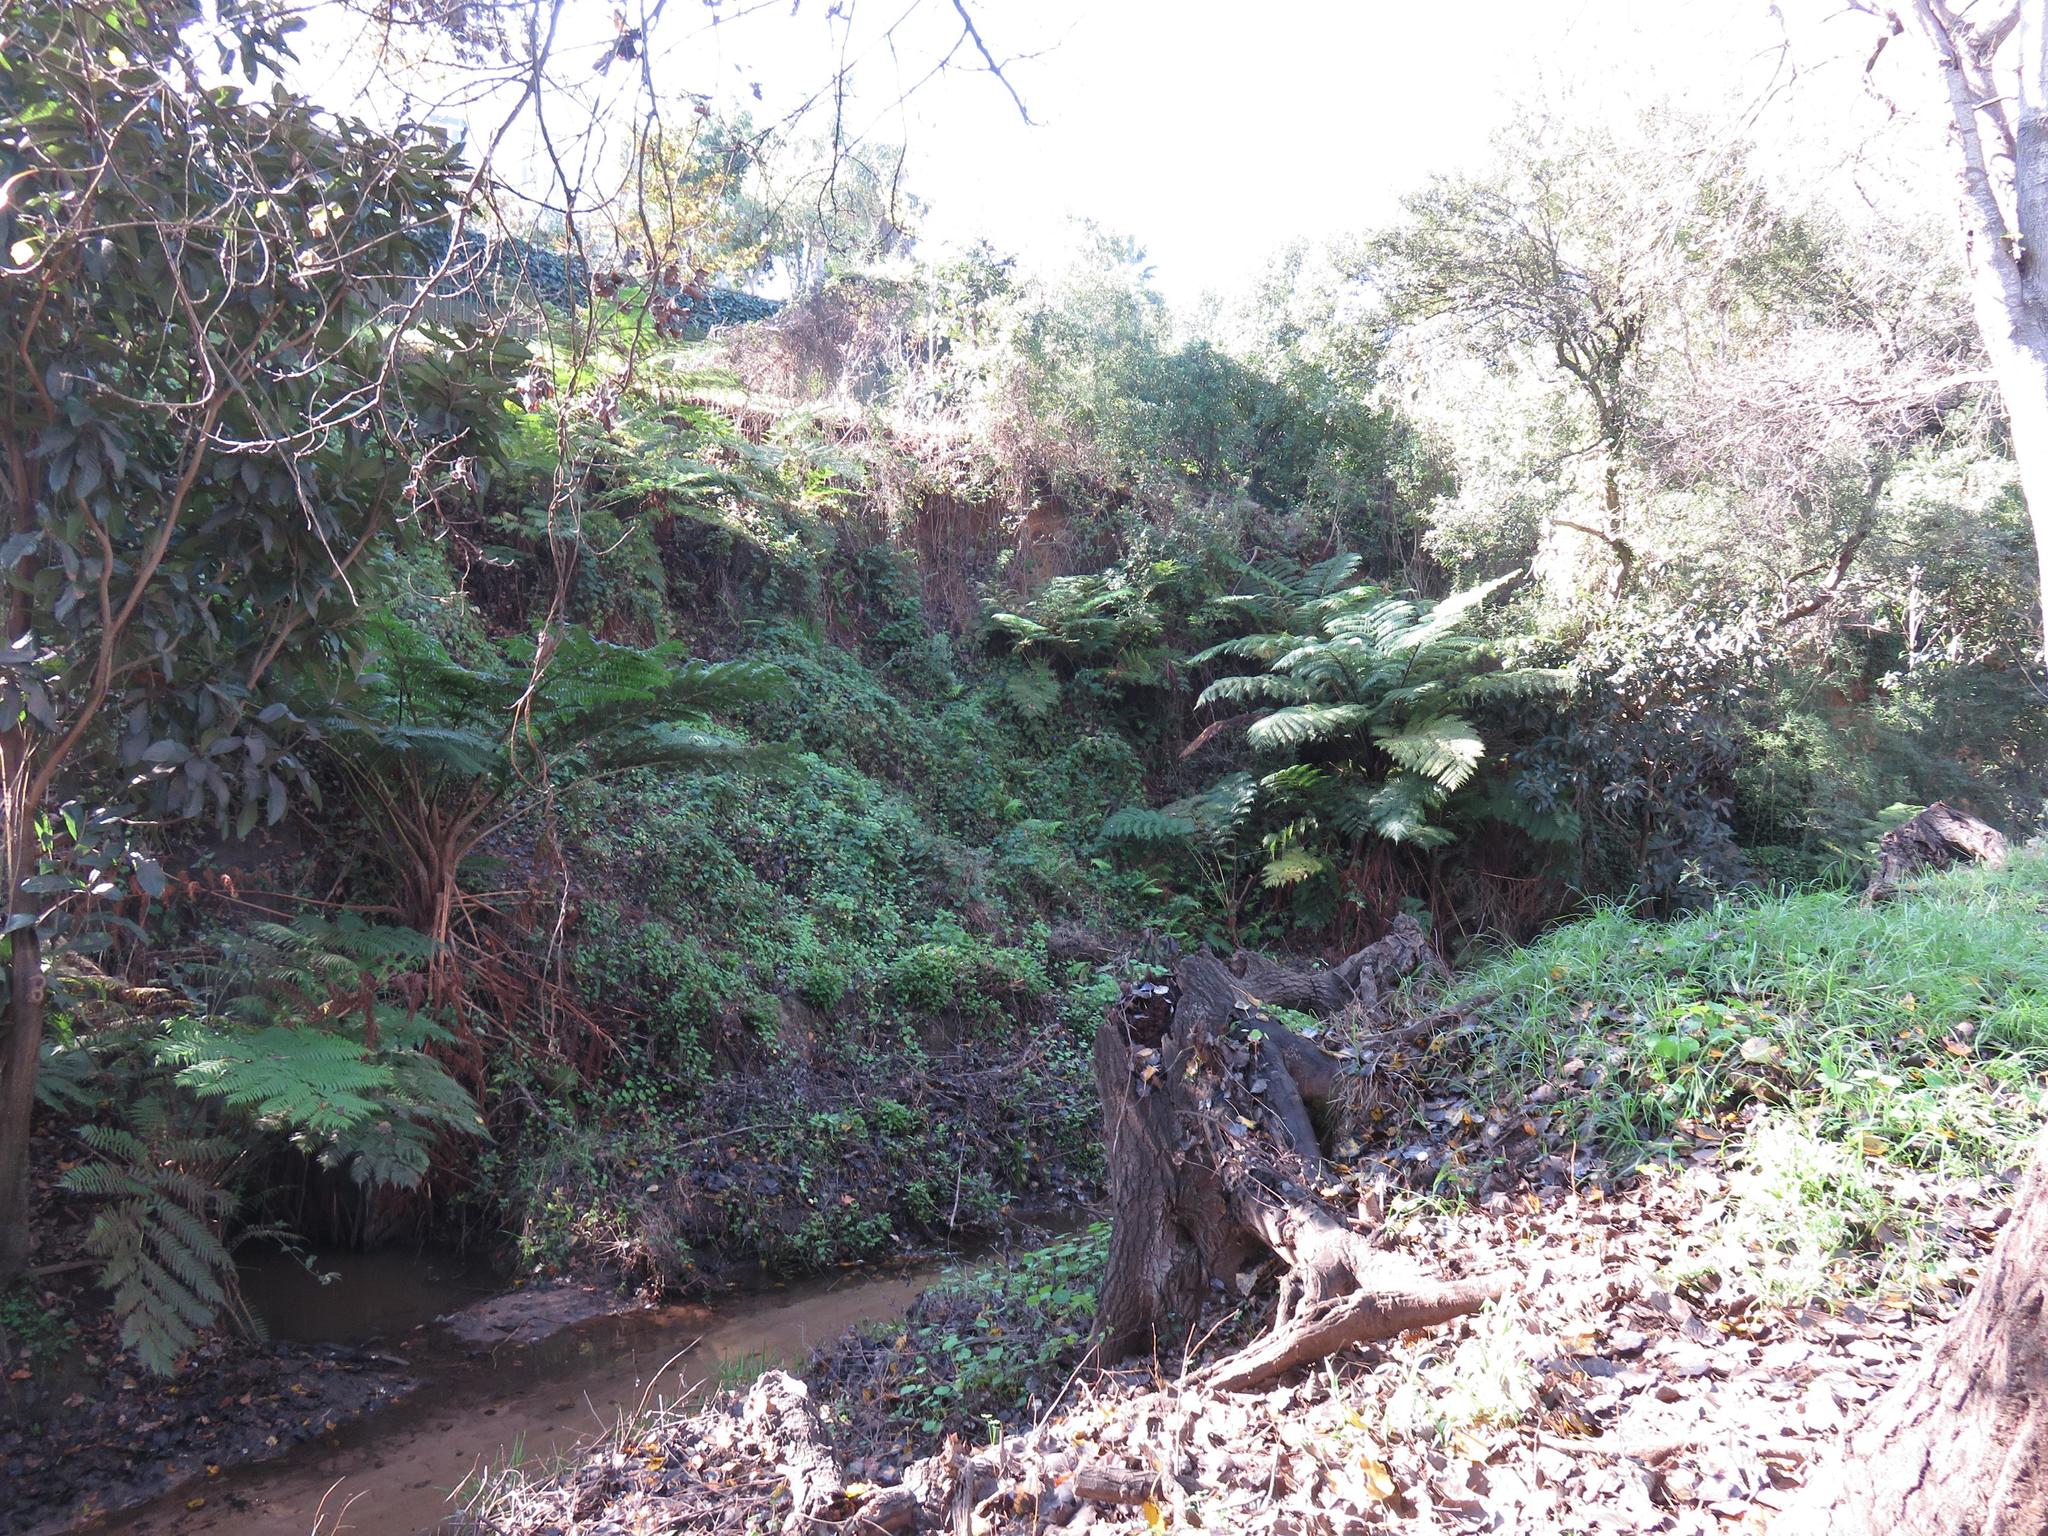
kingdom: Plantae
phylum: Tracheophyta
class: Polypodiopsida
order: Cyatheales
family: Cyatheaceae
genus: Sphaeropteris
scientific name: Sphaeropteris cooperi
